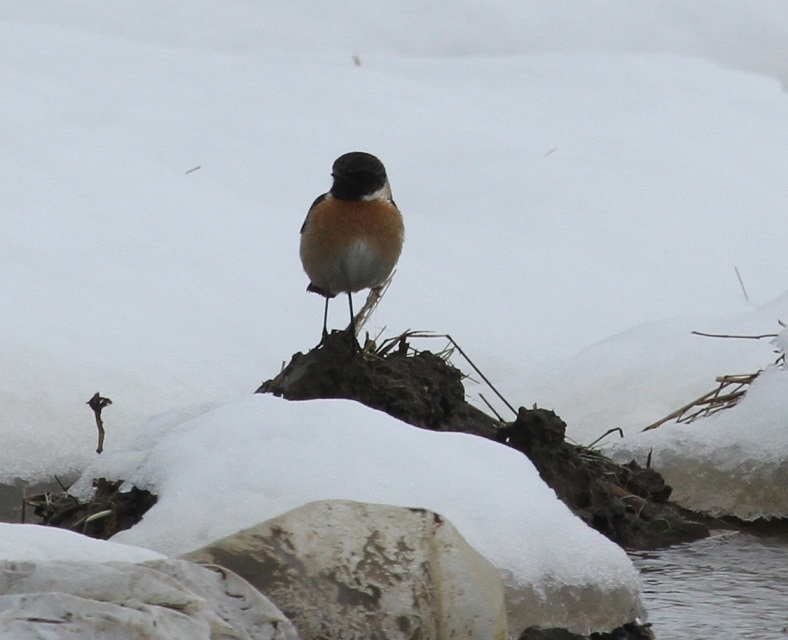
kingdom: Animalia
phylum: Chordata
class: Aves
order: Passeriformes
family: Muscicapidae
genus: Saxicola
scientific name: Saxicola rubicola
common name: European stonechat
